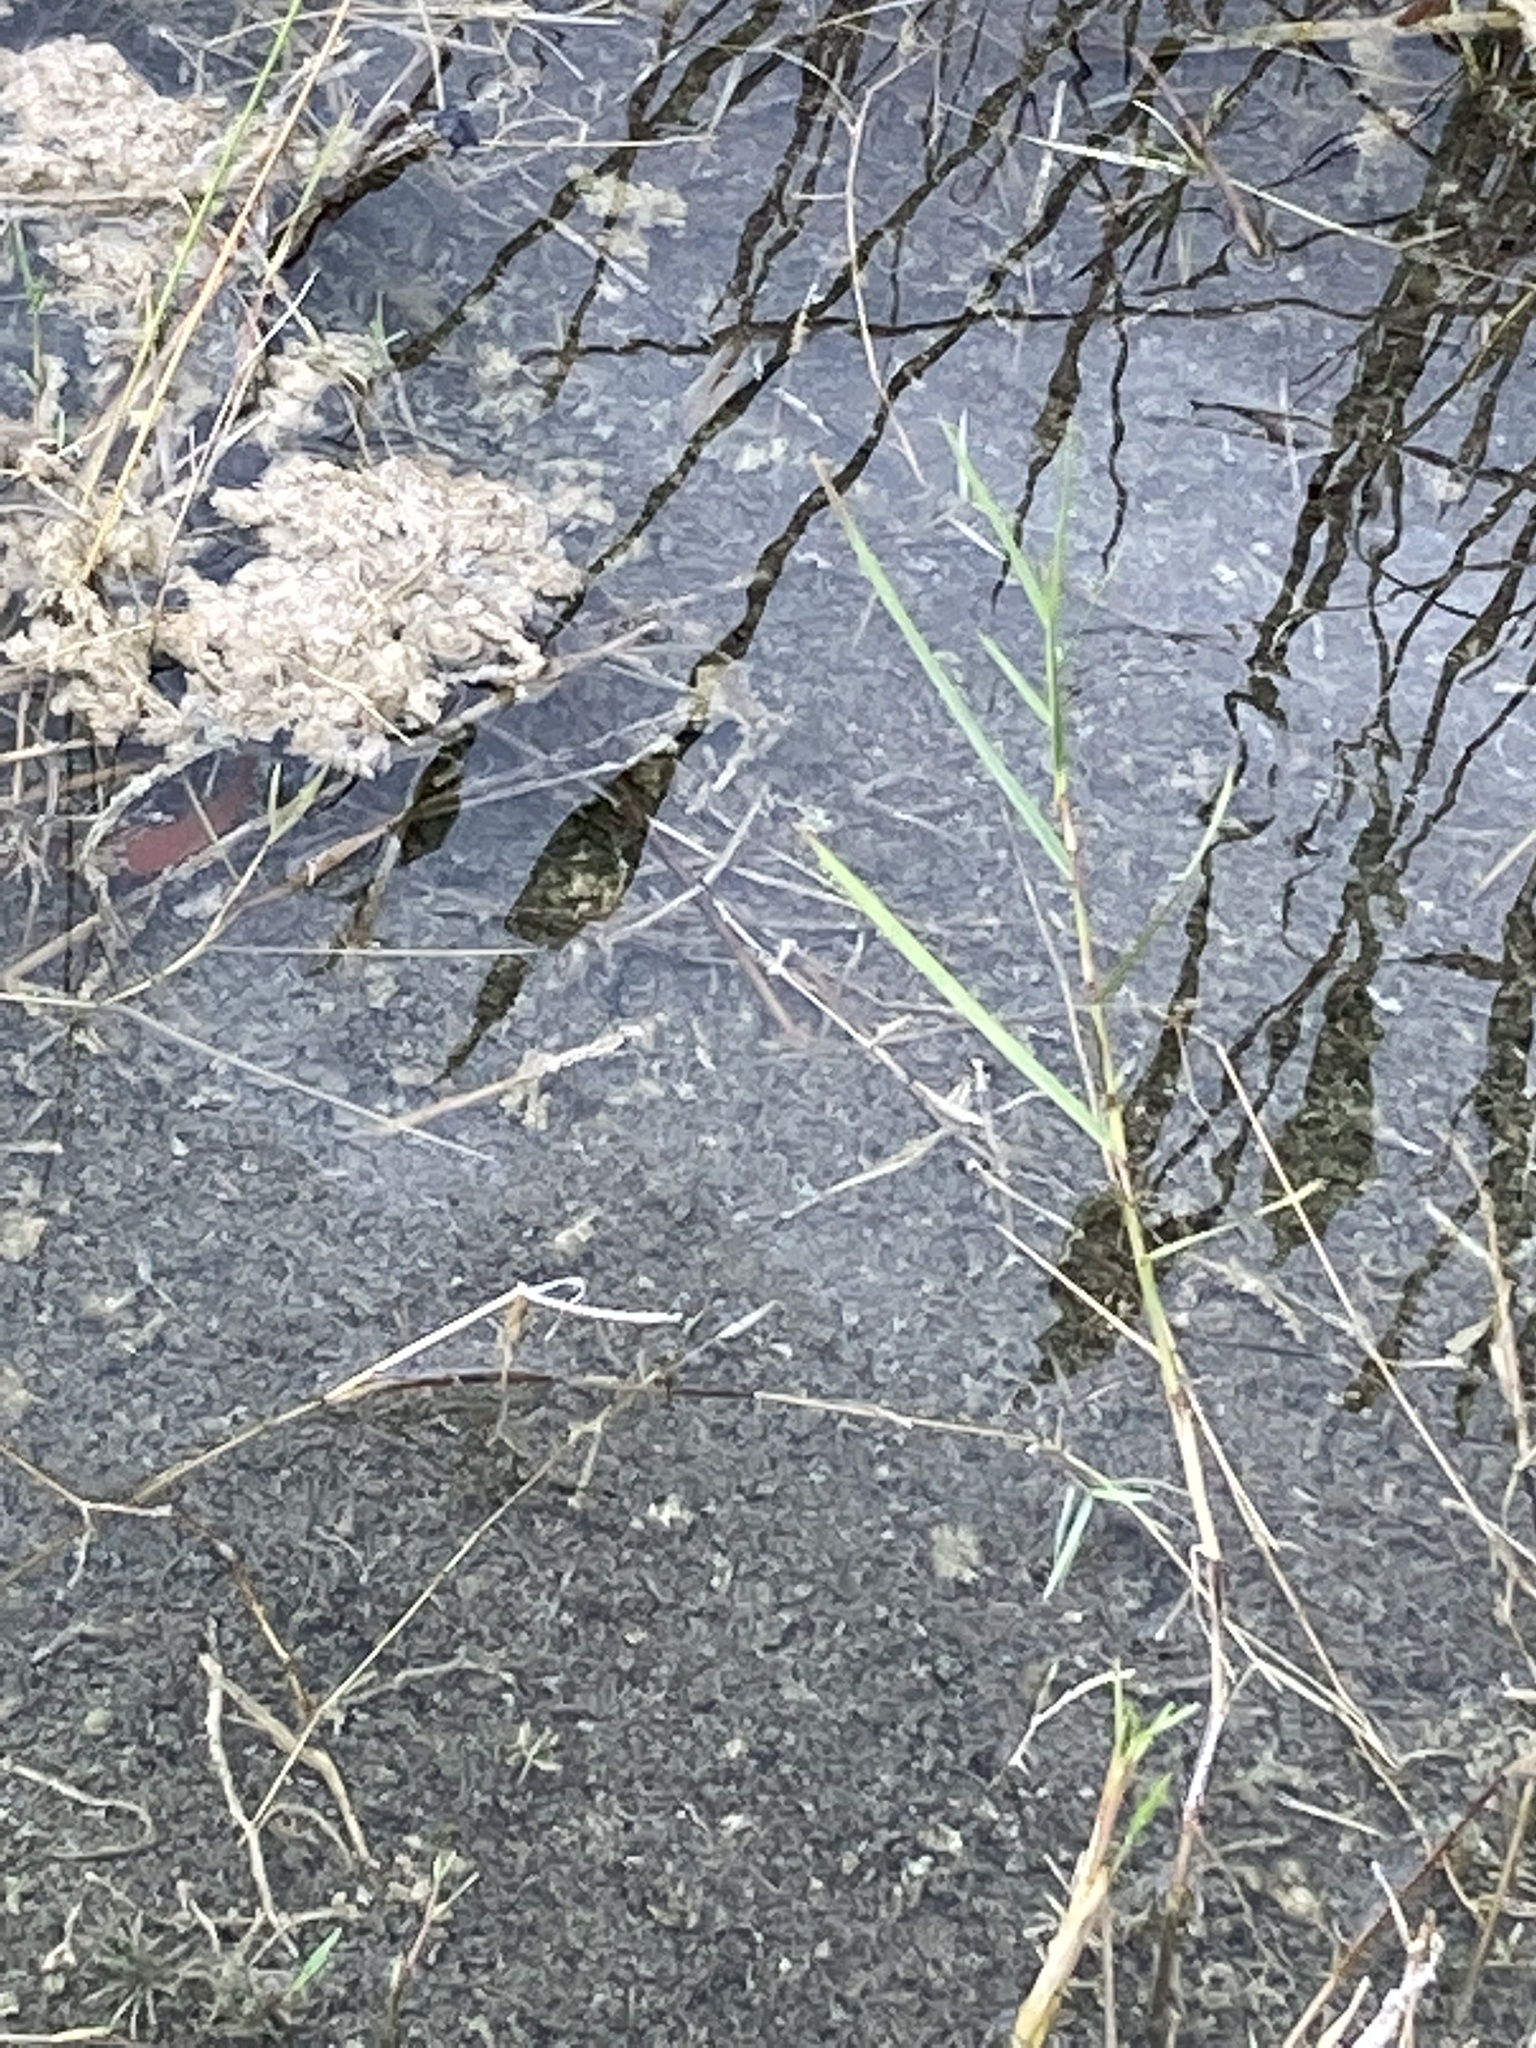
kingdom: Plantae
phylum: Tracheophyta
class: Liliopsida
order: Poales
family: Poaceae
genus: Panicum
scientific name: Panicum repens
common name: Torpedo grass
